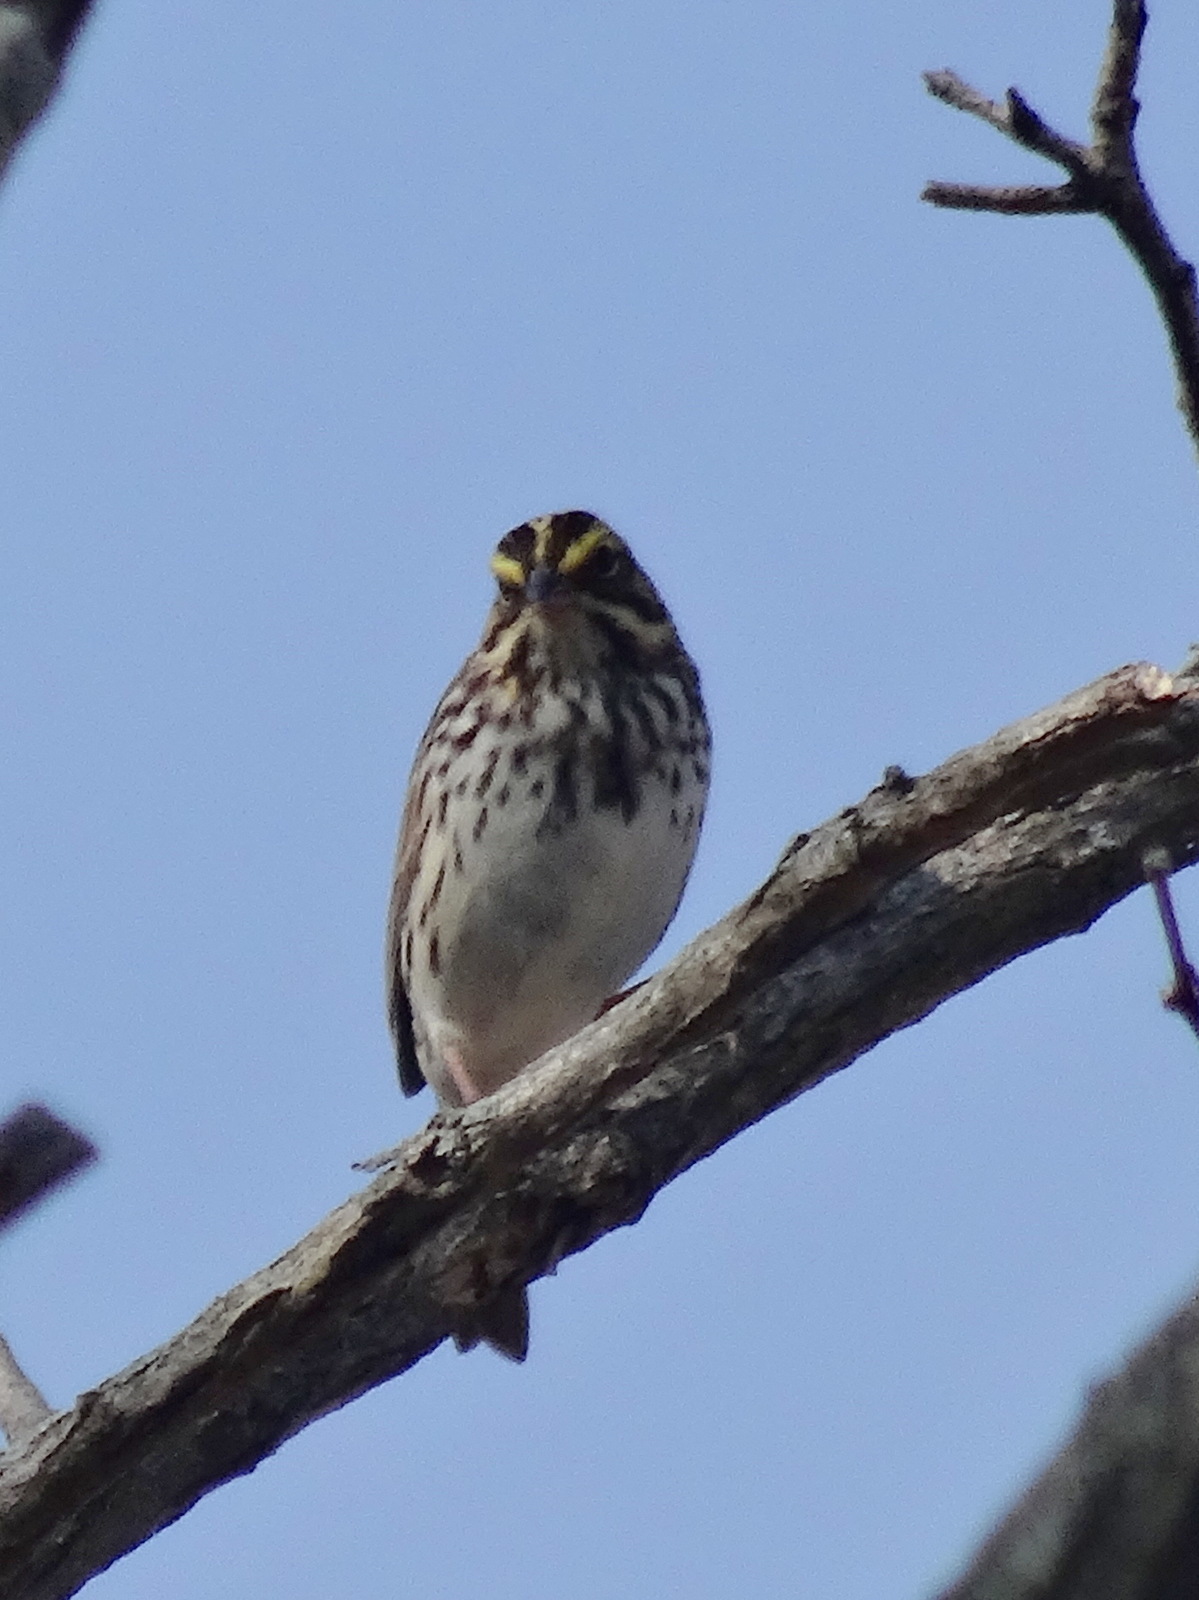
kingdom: Animalia
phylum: Chordata
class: Aves
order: Passeriformes
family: Passerellidae
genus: Passerculus
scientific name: Passerculus sandwichensis
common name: Savannah sparrow
